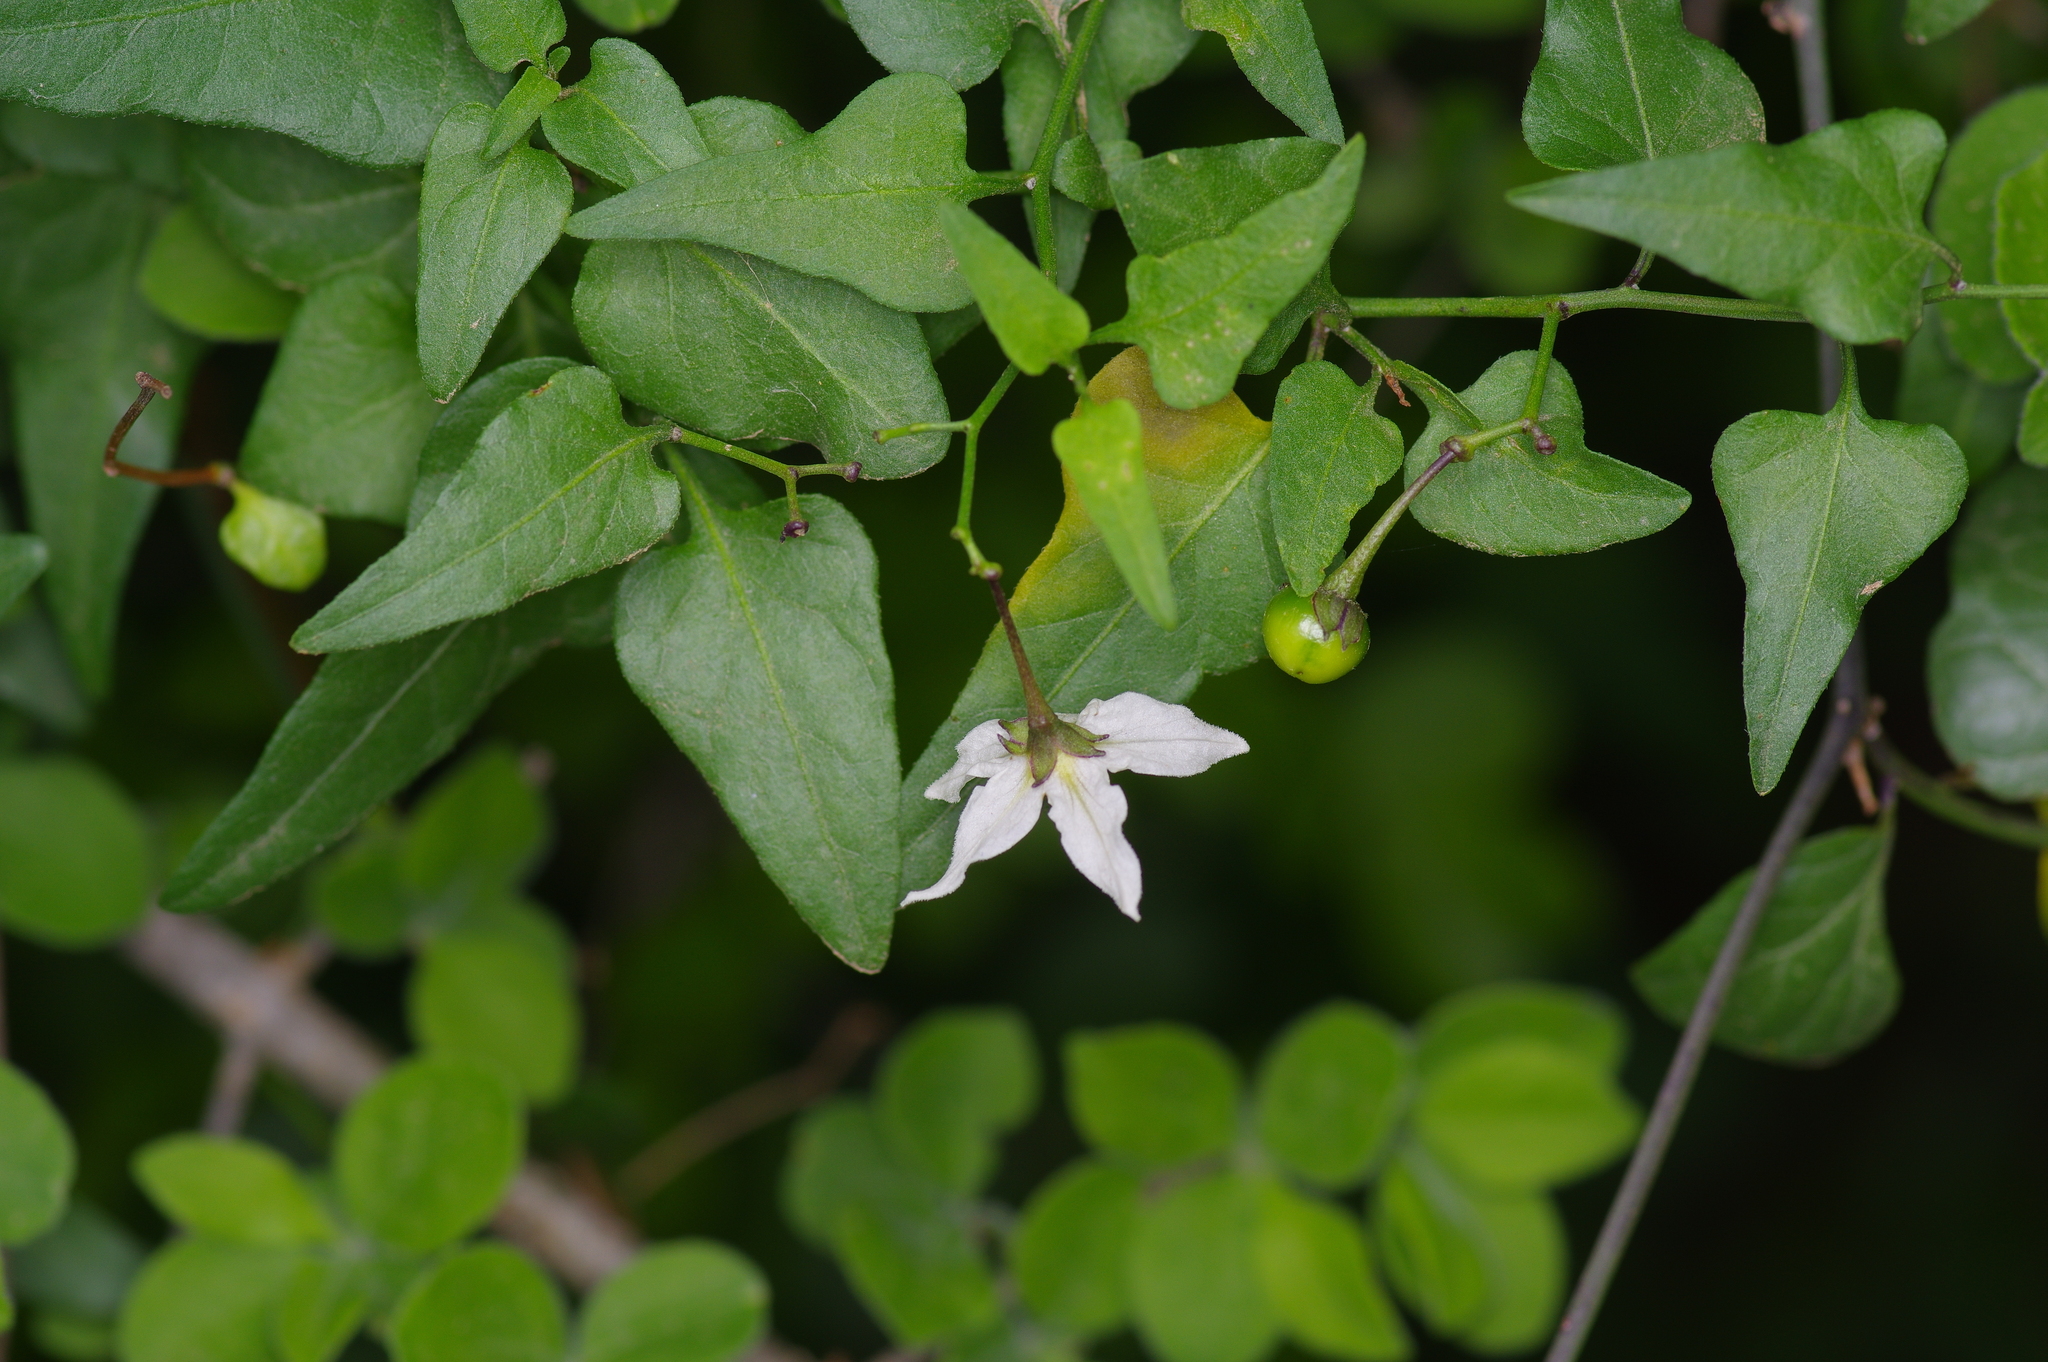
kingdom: Plantae
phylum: Tracheophyta
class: Magnoliopsida
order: Solanales
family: Solanaceae
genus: Solanum
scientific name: Solanum triquetrum
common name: Texas nightshade
